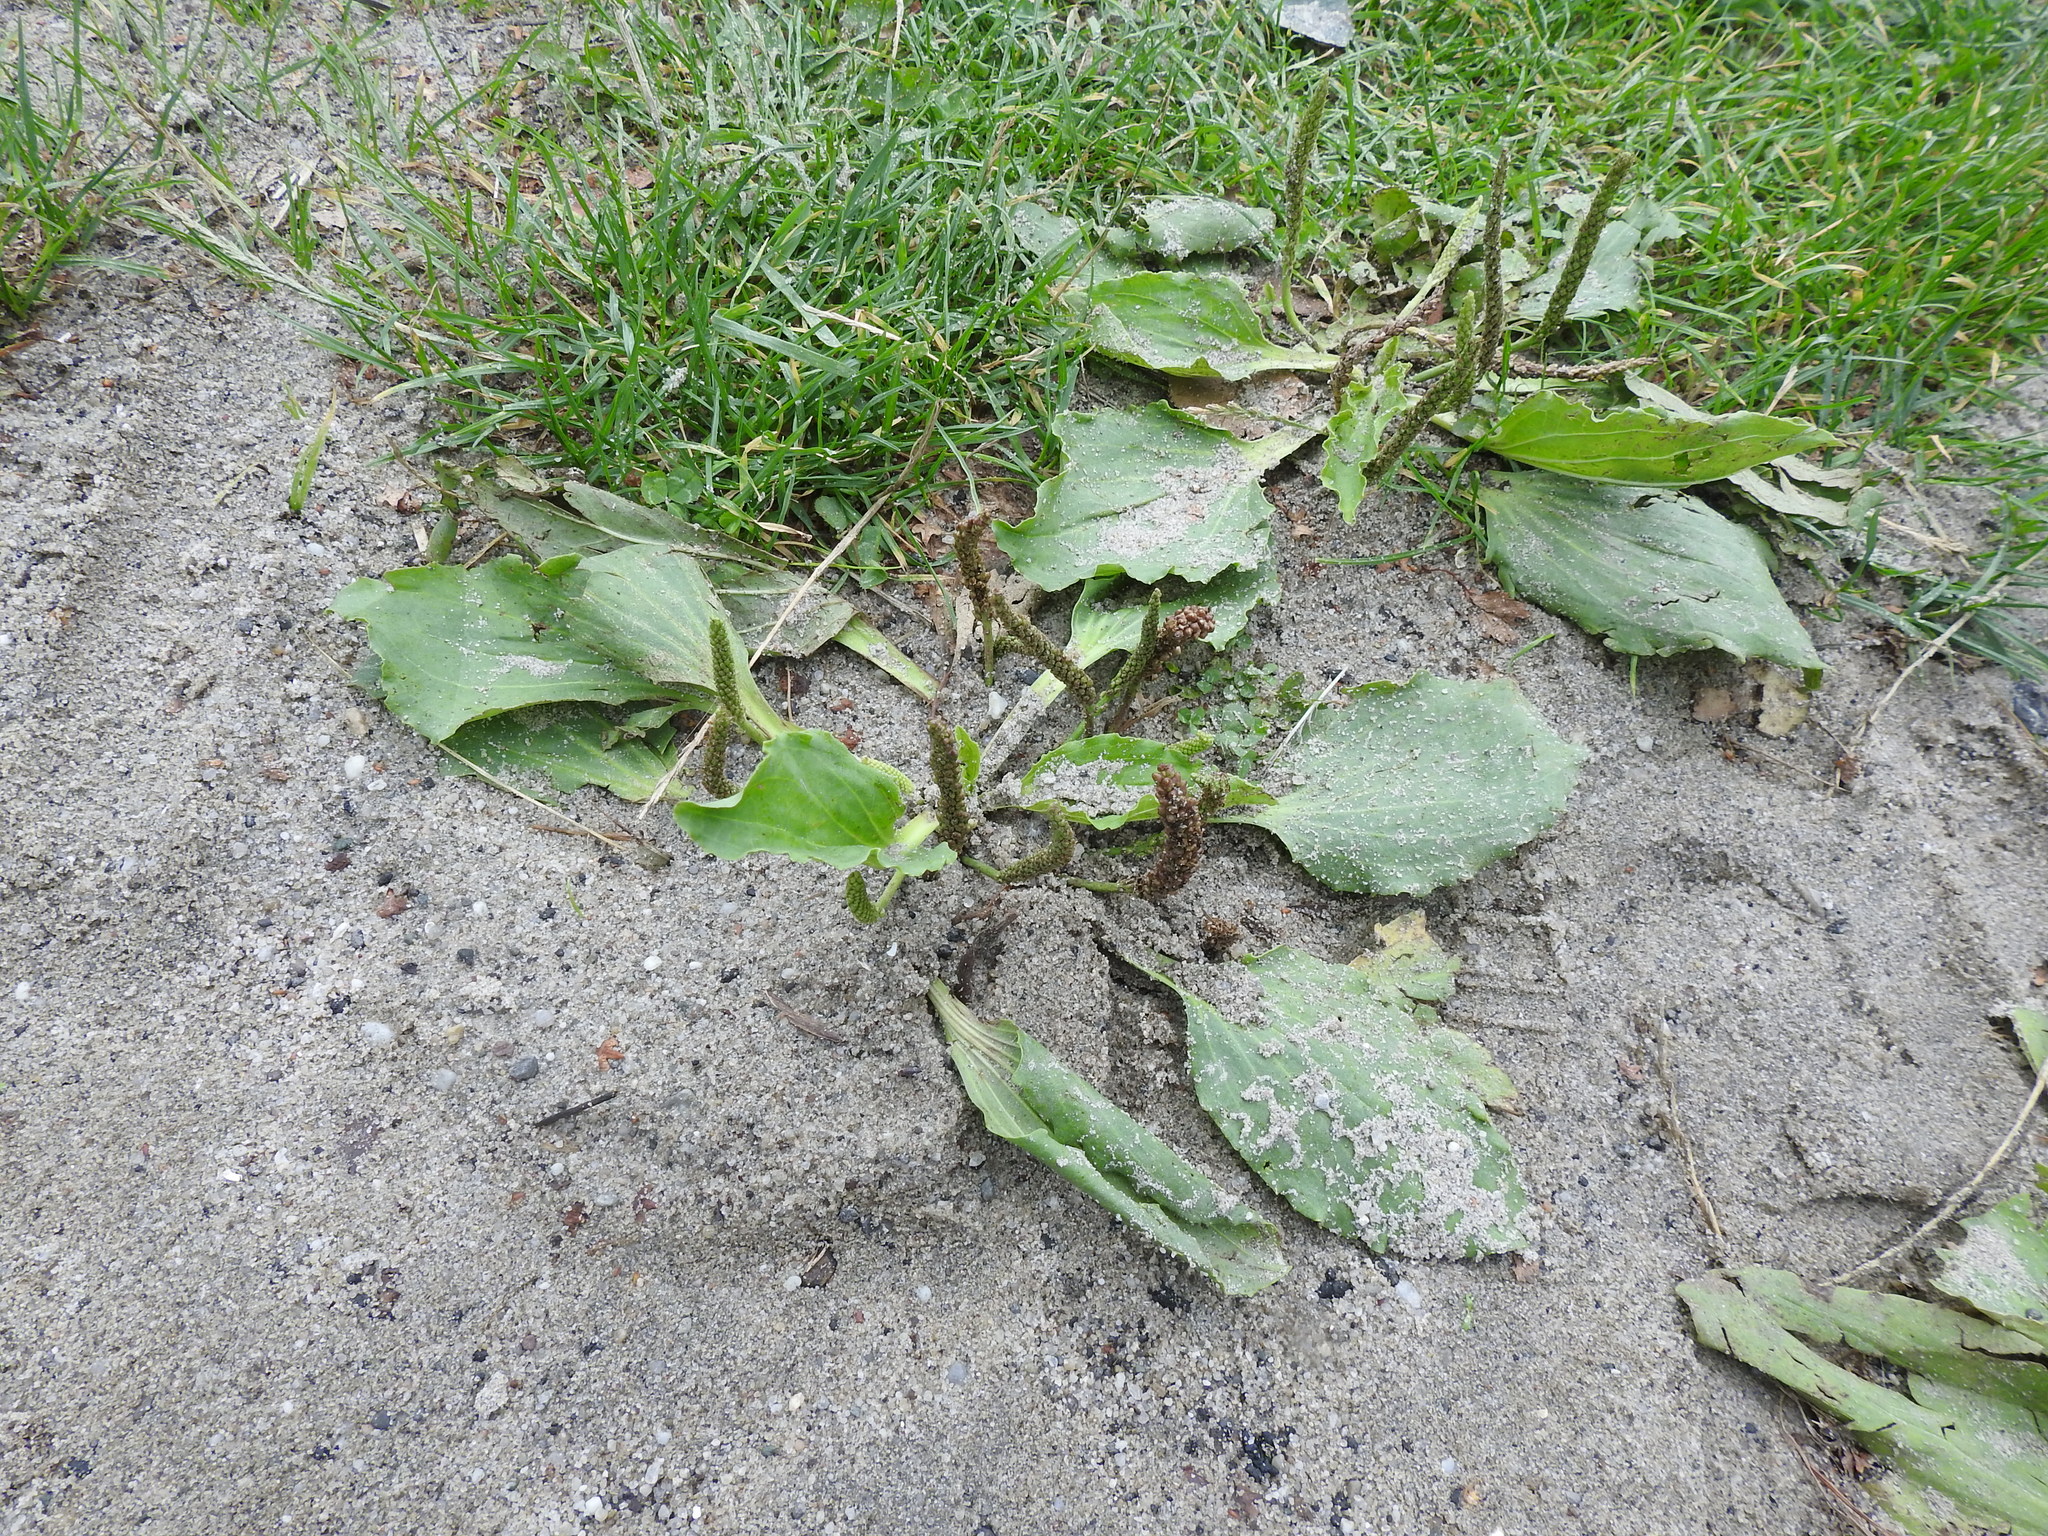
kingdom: Plantae
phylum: Tracheophyta
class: Magnoliopsida
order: Lamiales
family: Plantaginaceae
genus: Plantago
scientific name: Plantago major
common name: Common plantain
